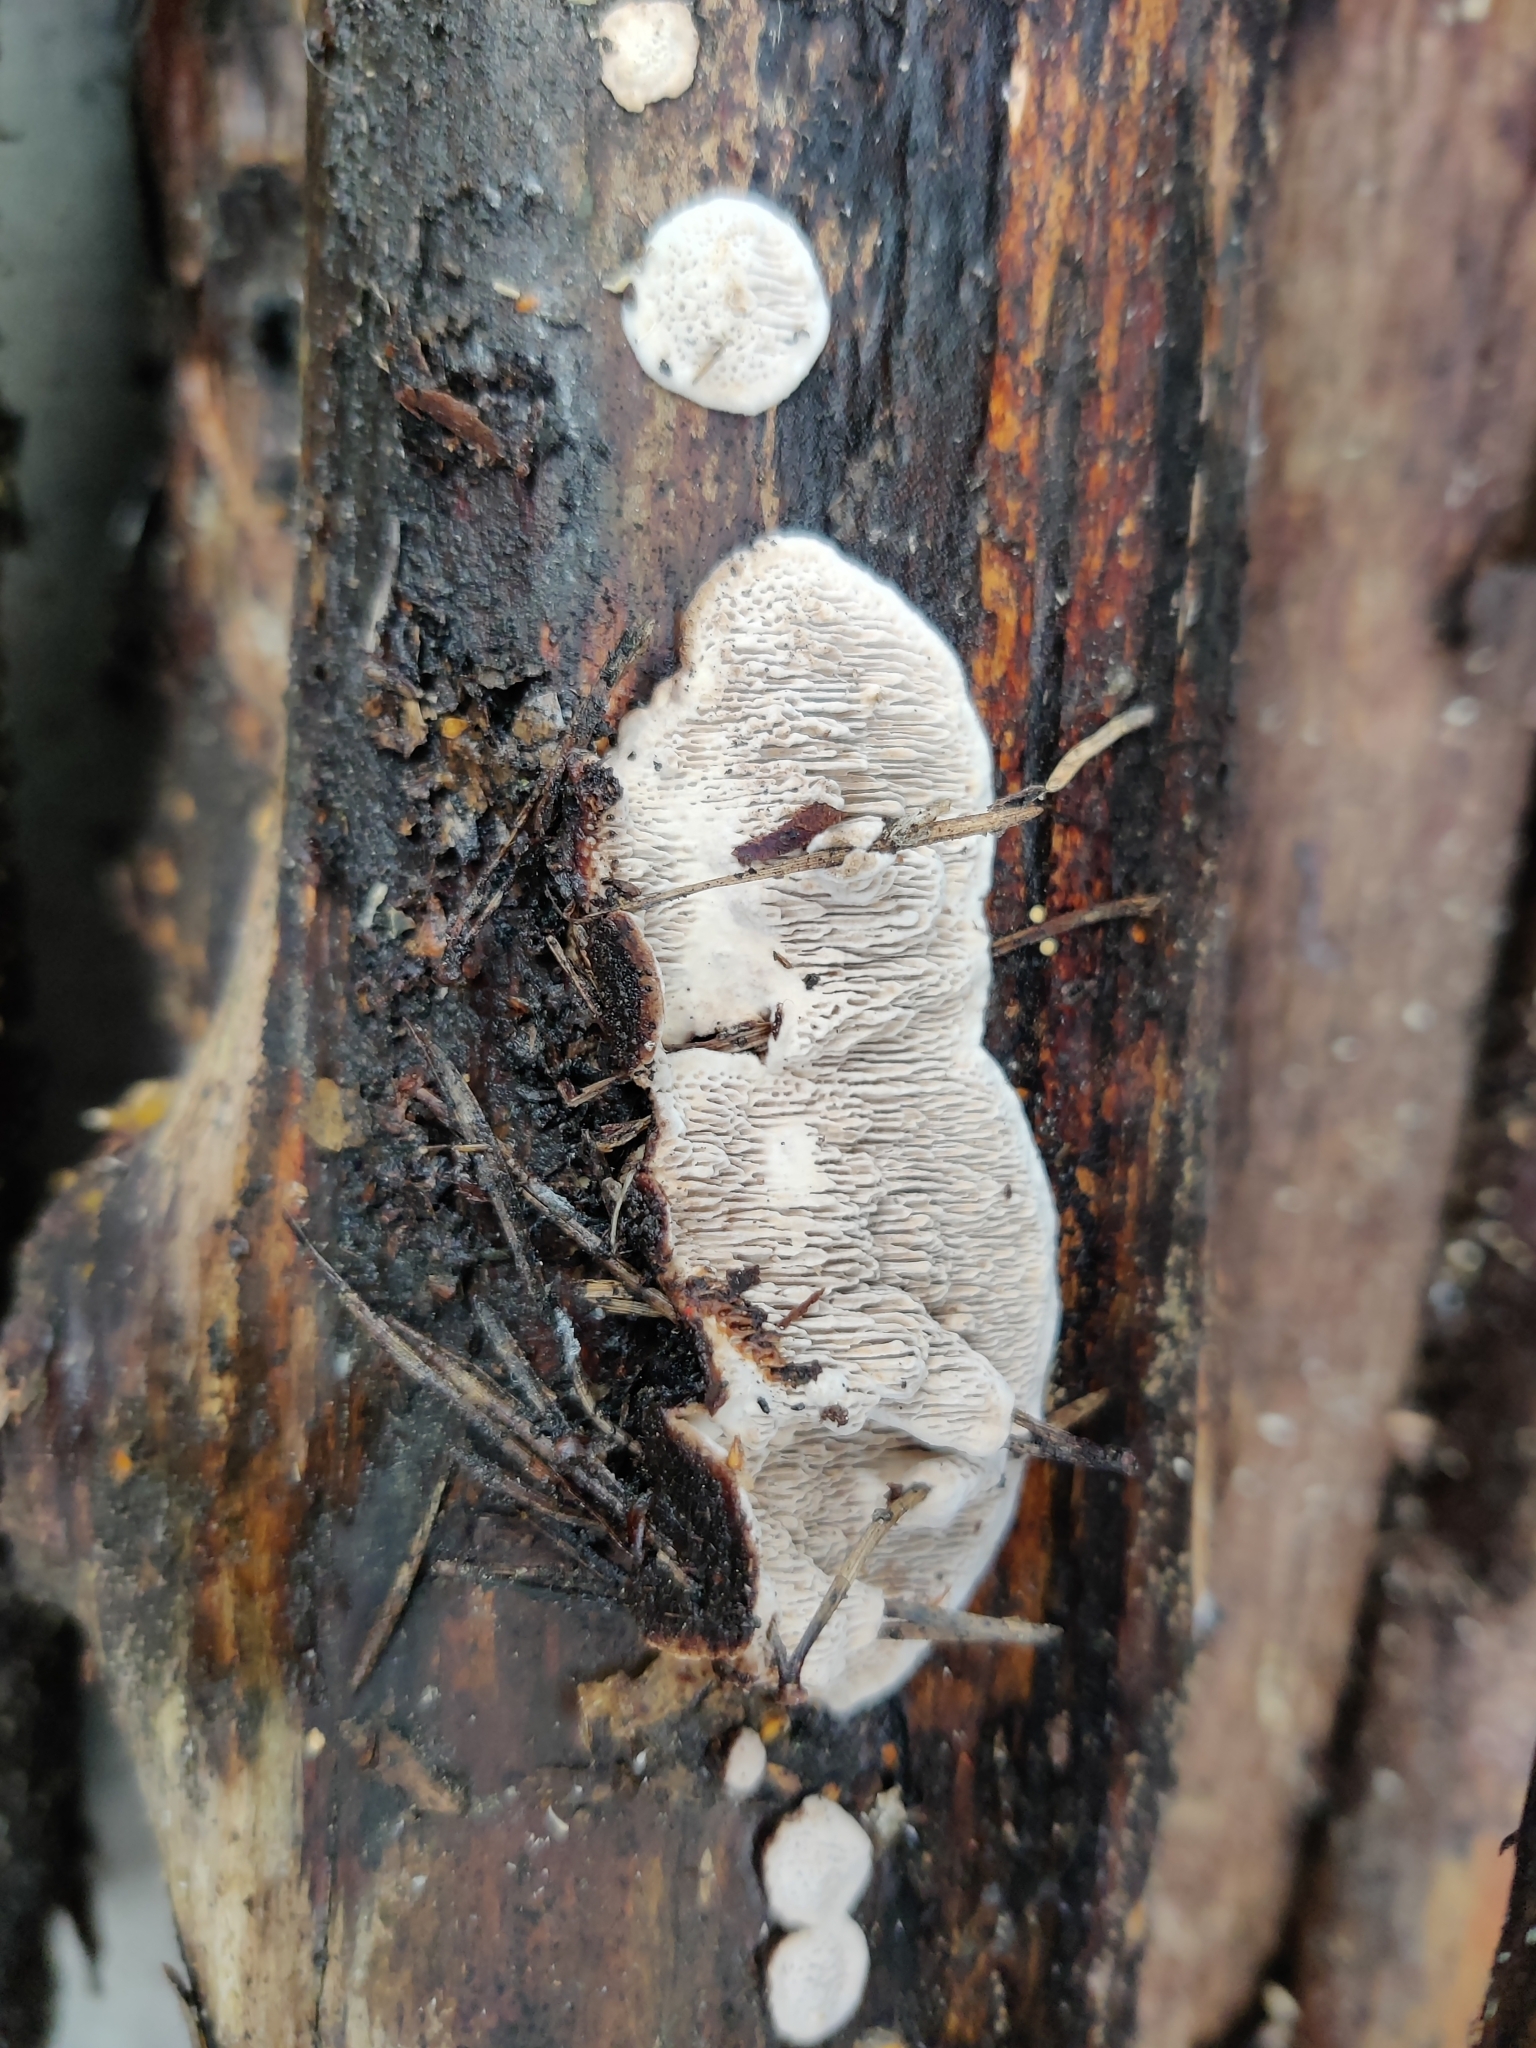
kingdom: Fungi
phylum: Basidiomycota
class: Agaricomycetes
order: Polyporales
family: Polyporaceae
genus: Podofomes
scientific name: Podofomes mollis
